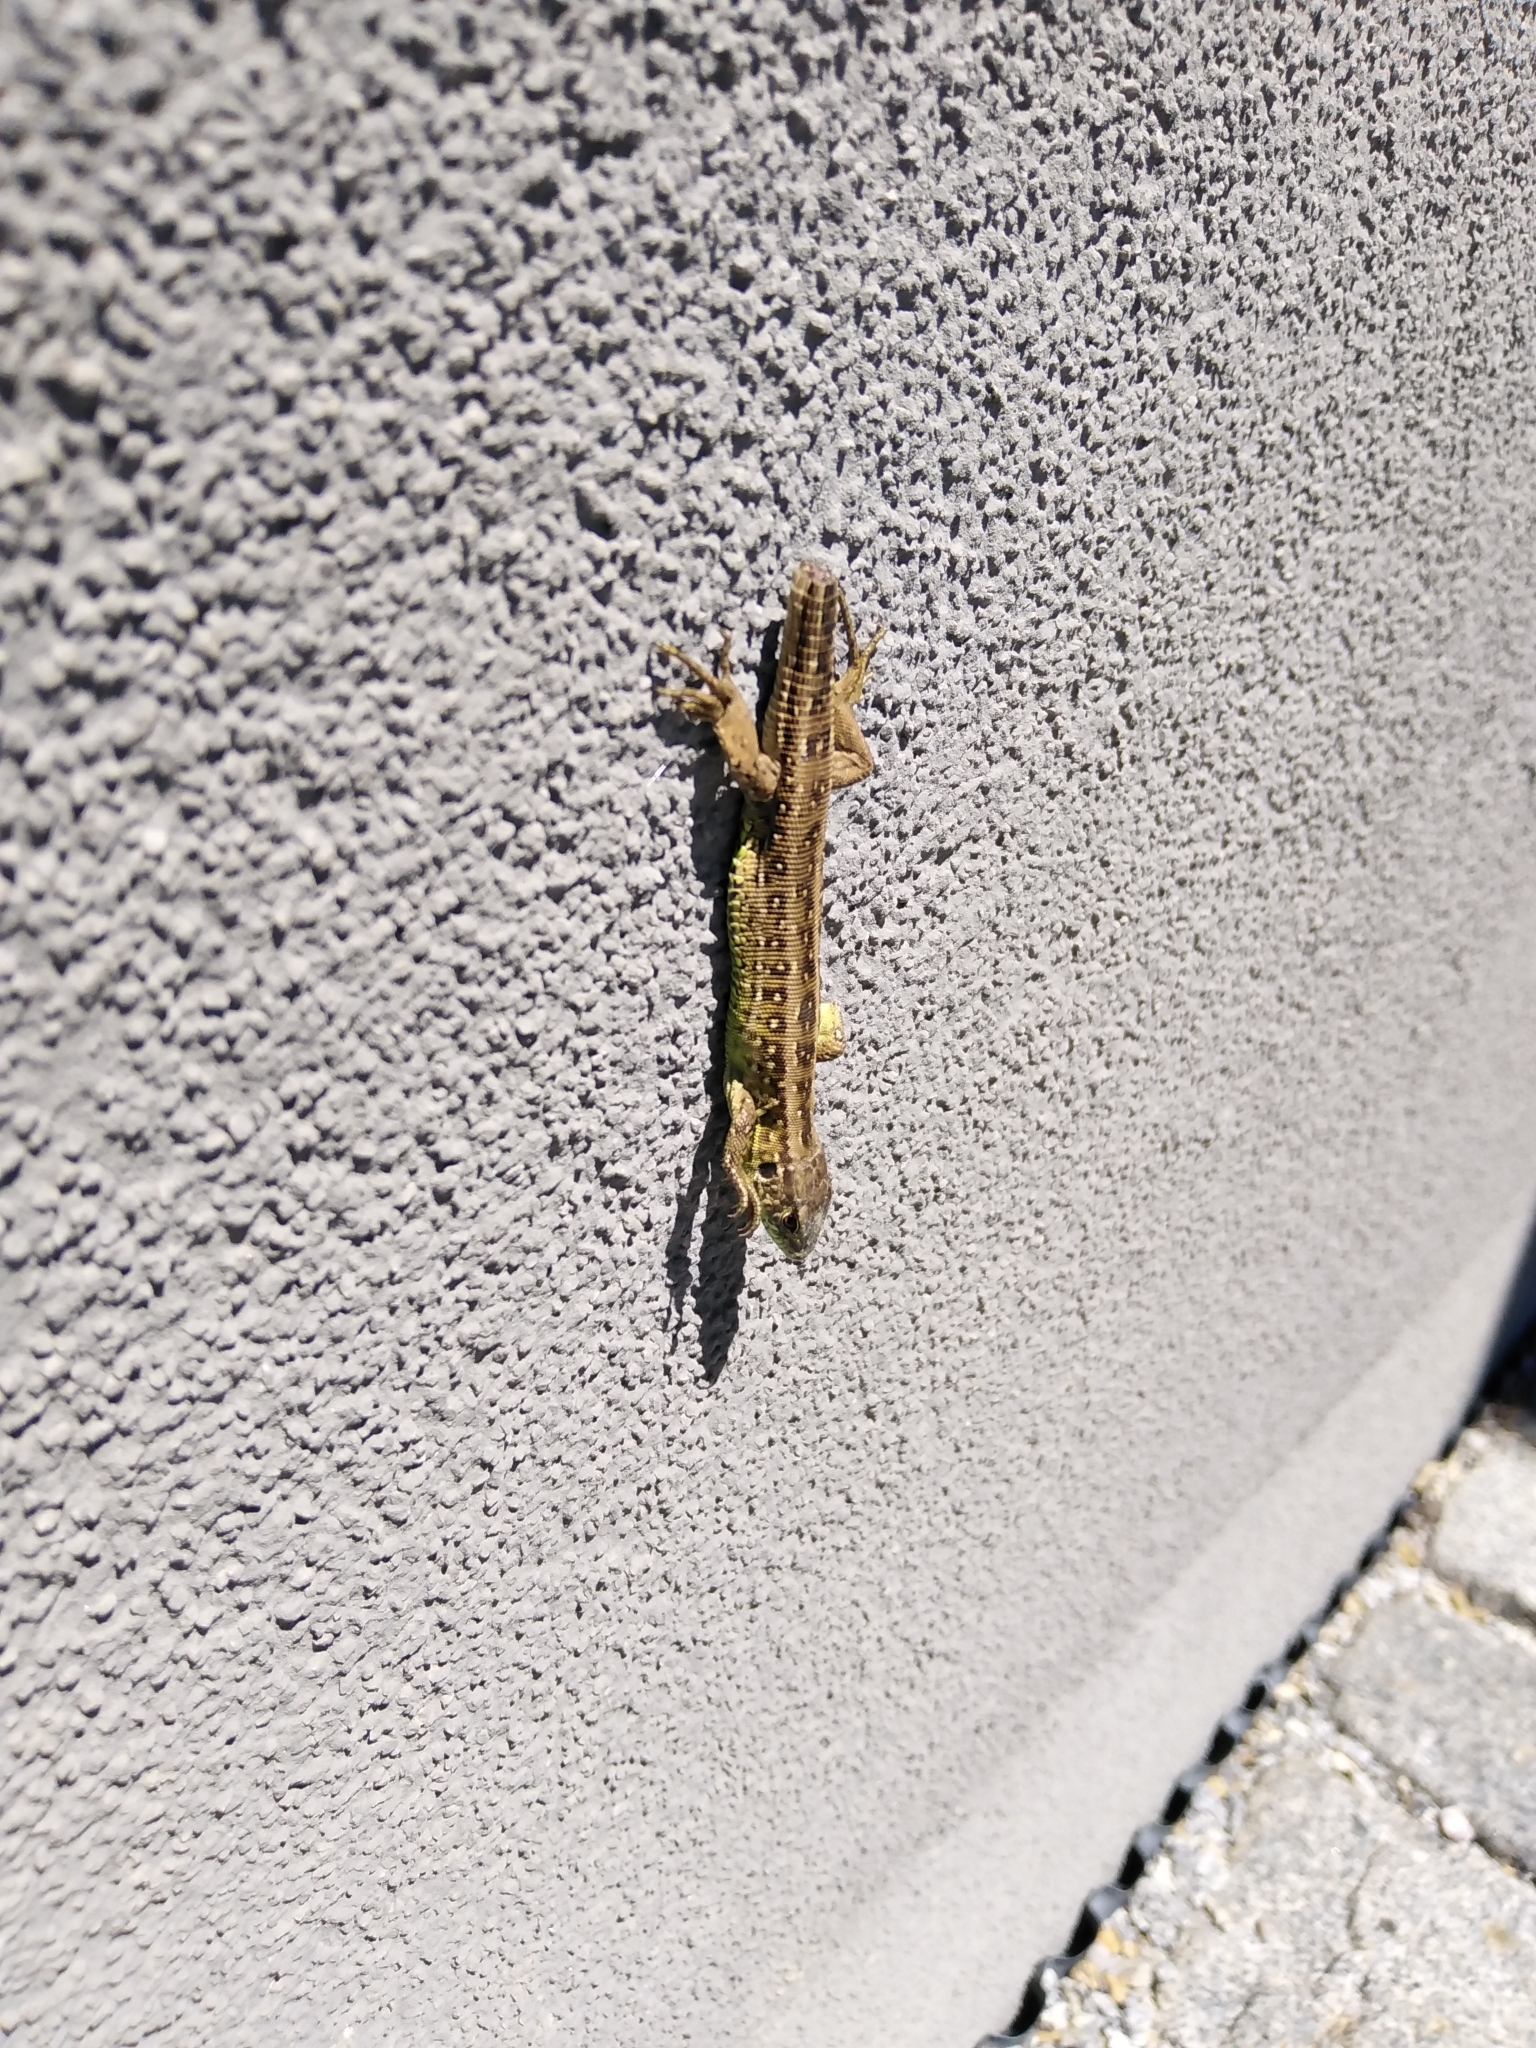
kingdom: Animalia
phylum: Chordata
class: Squamata
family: Lacertidae
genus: Lacerta
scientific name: Lacerta agilis
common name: Sand lizard
